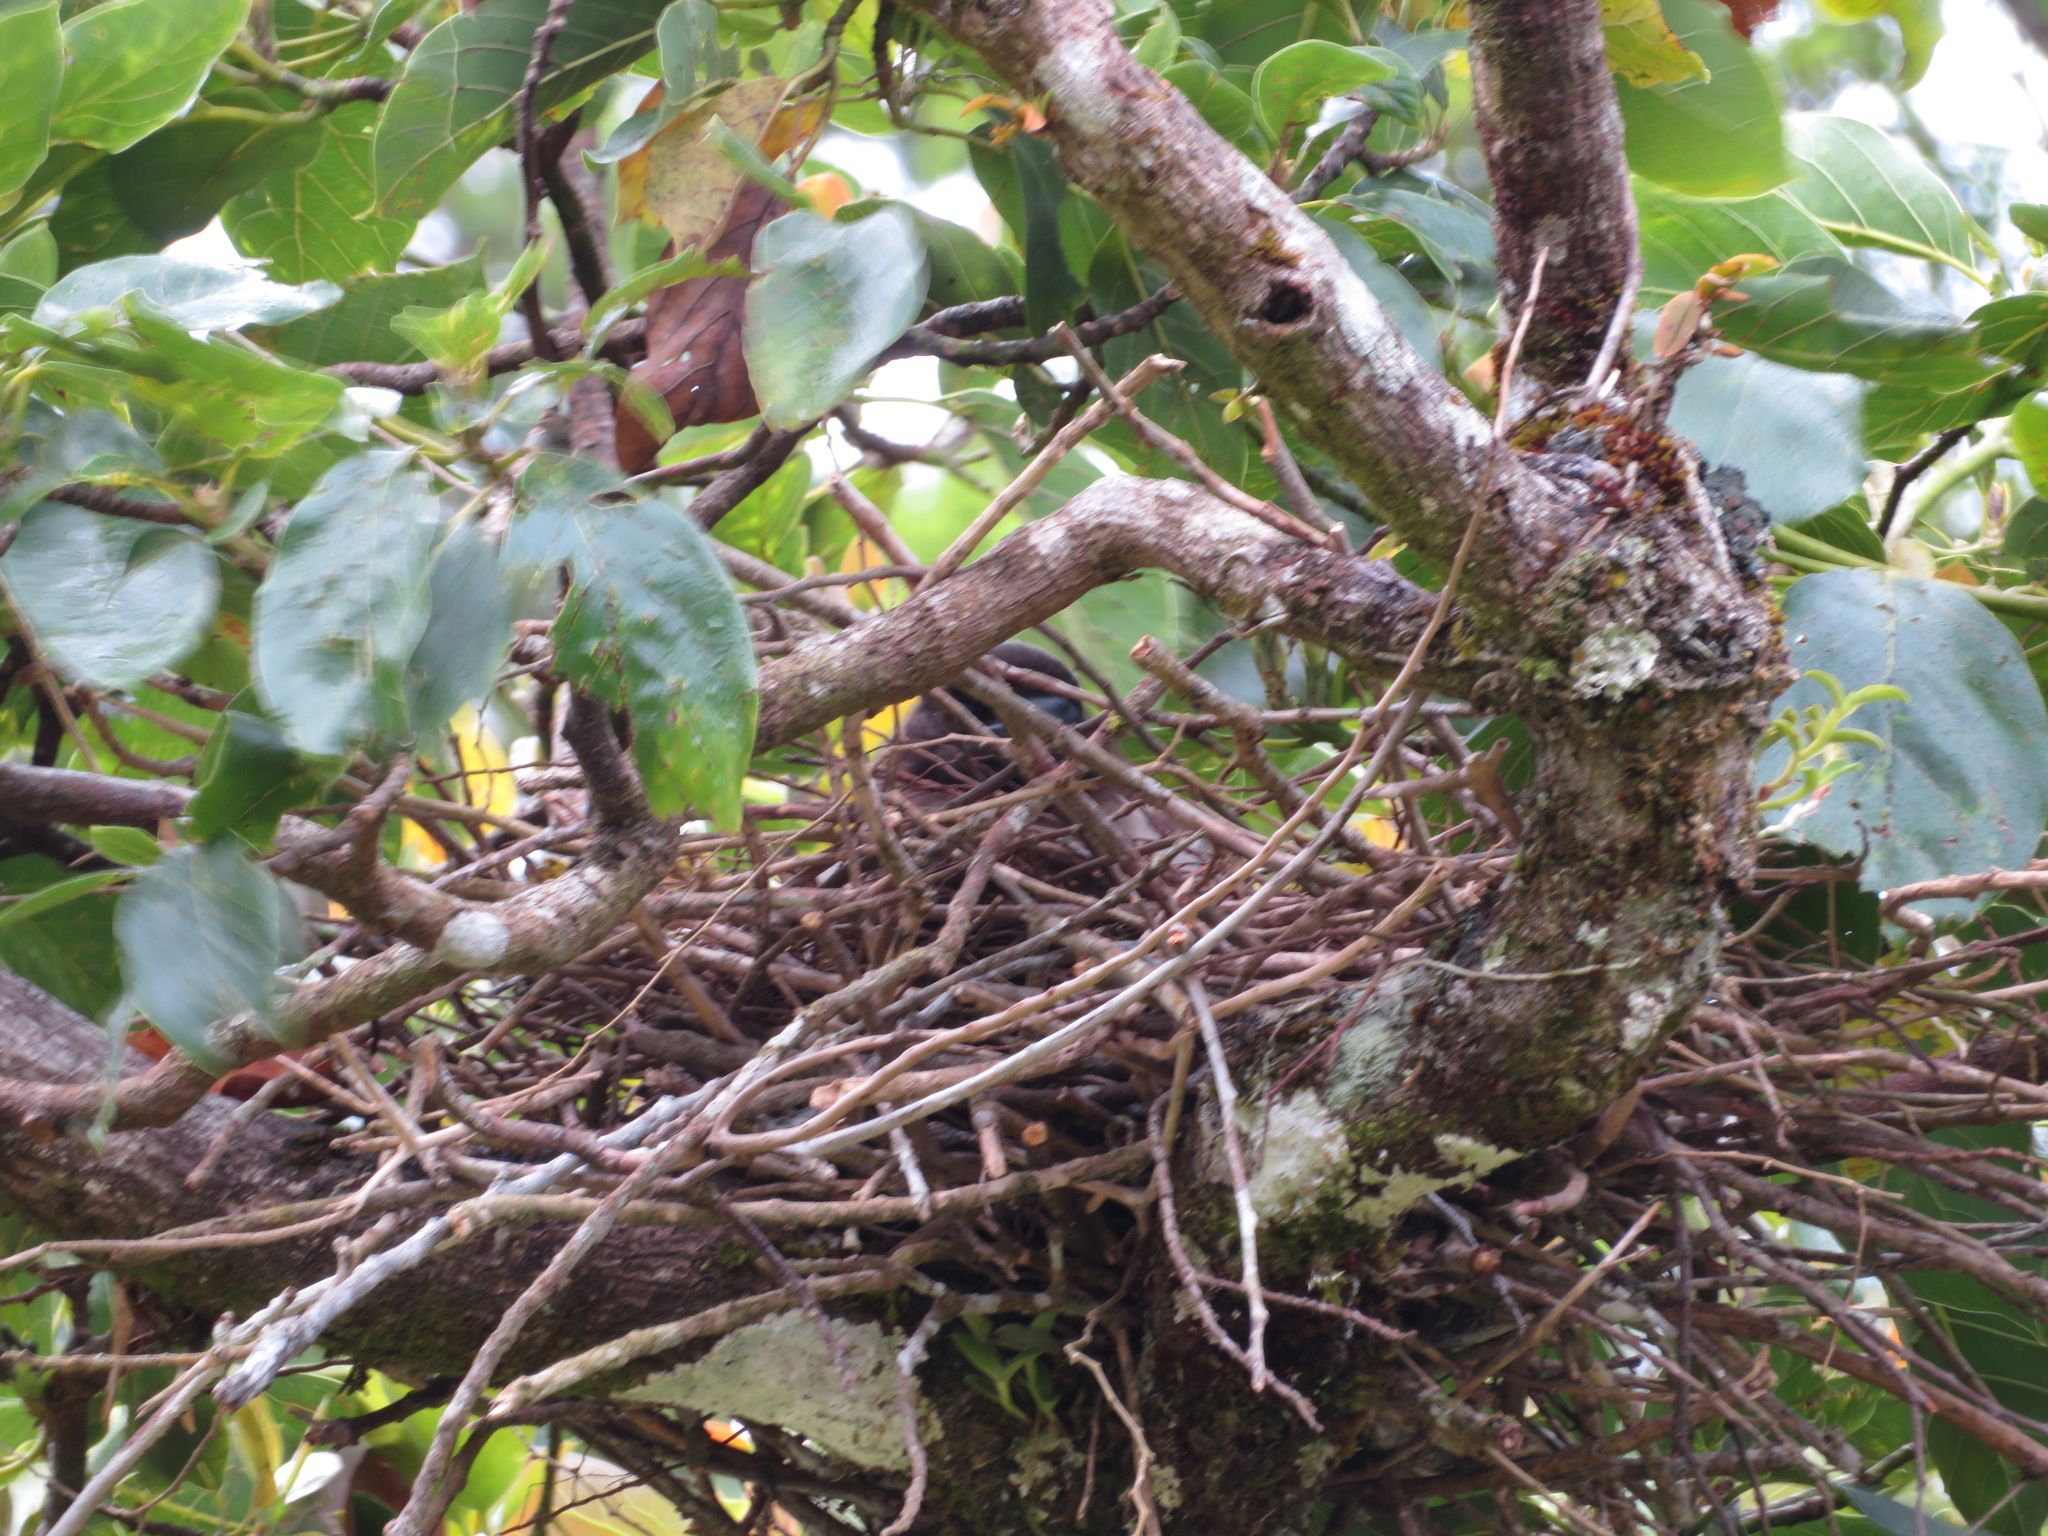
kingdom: Animalia
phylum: Chordata
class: Aves
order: Passeriformes
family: Corvidae
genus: Psilorhinus
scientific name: Psilorhinus morio
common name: Brown jay
